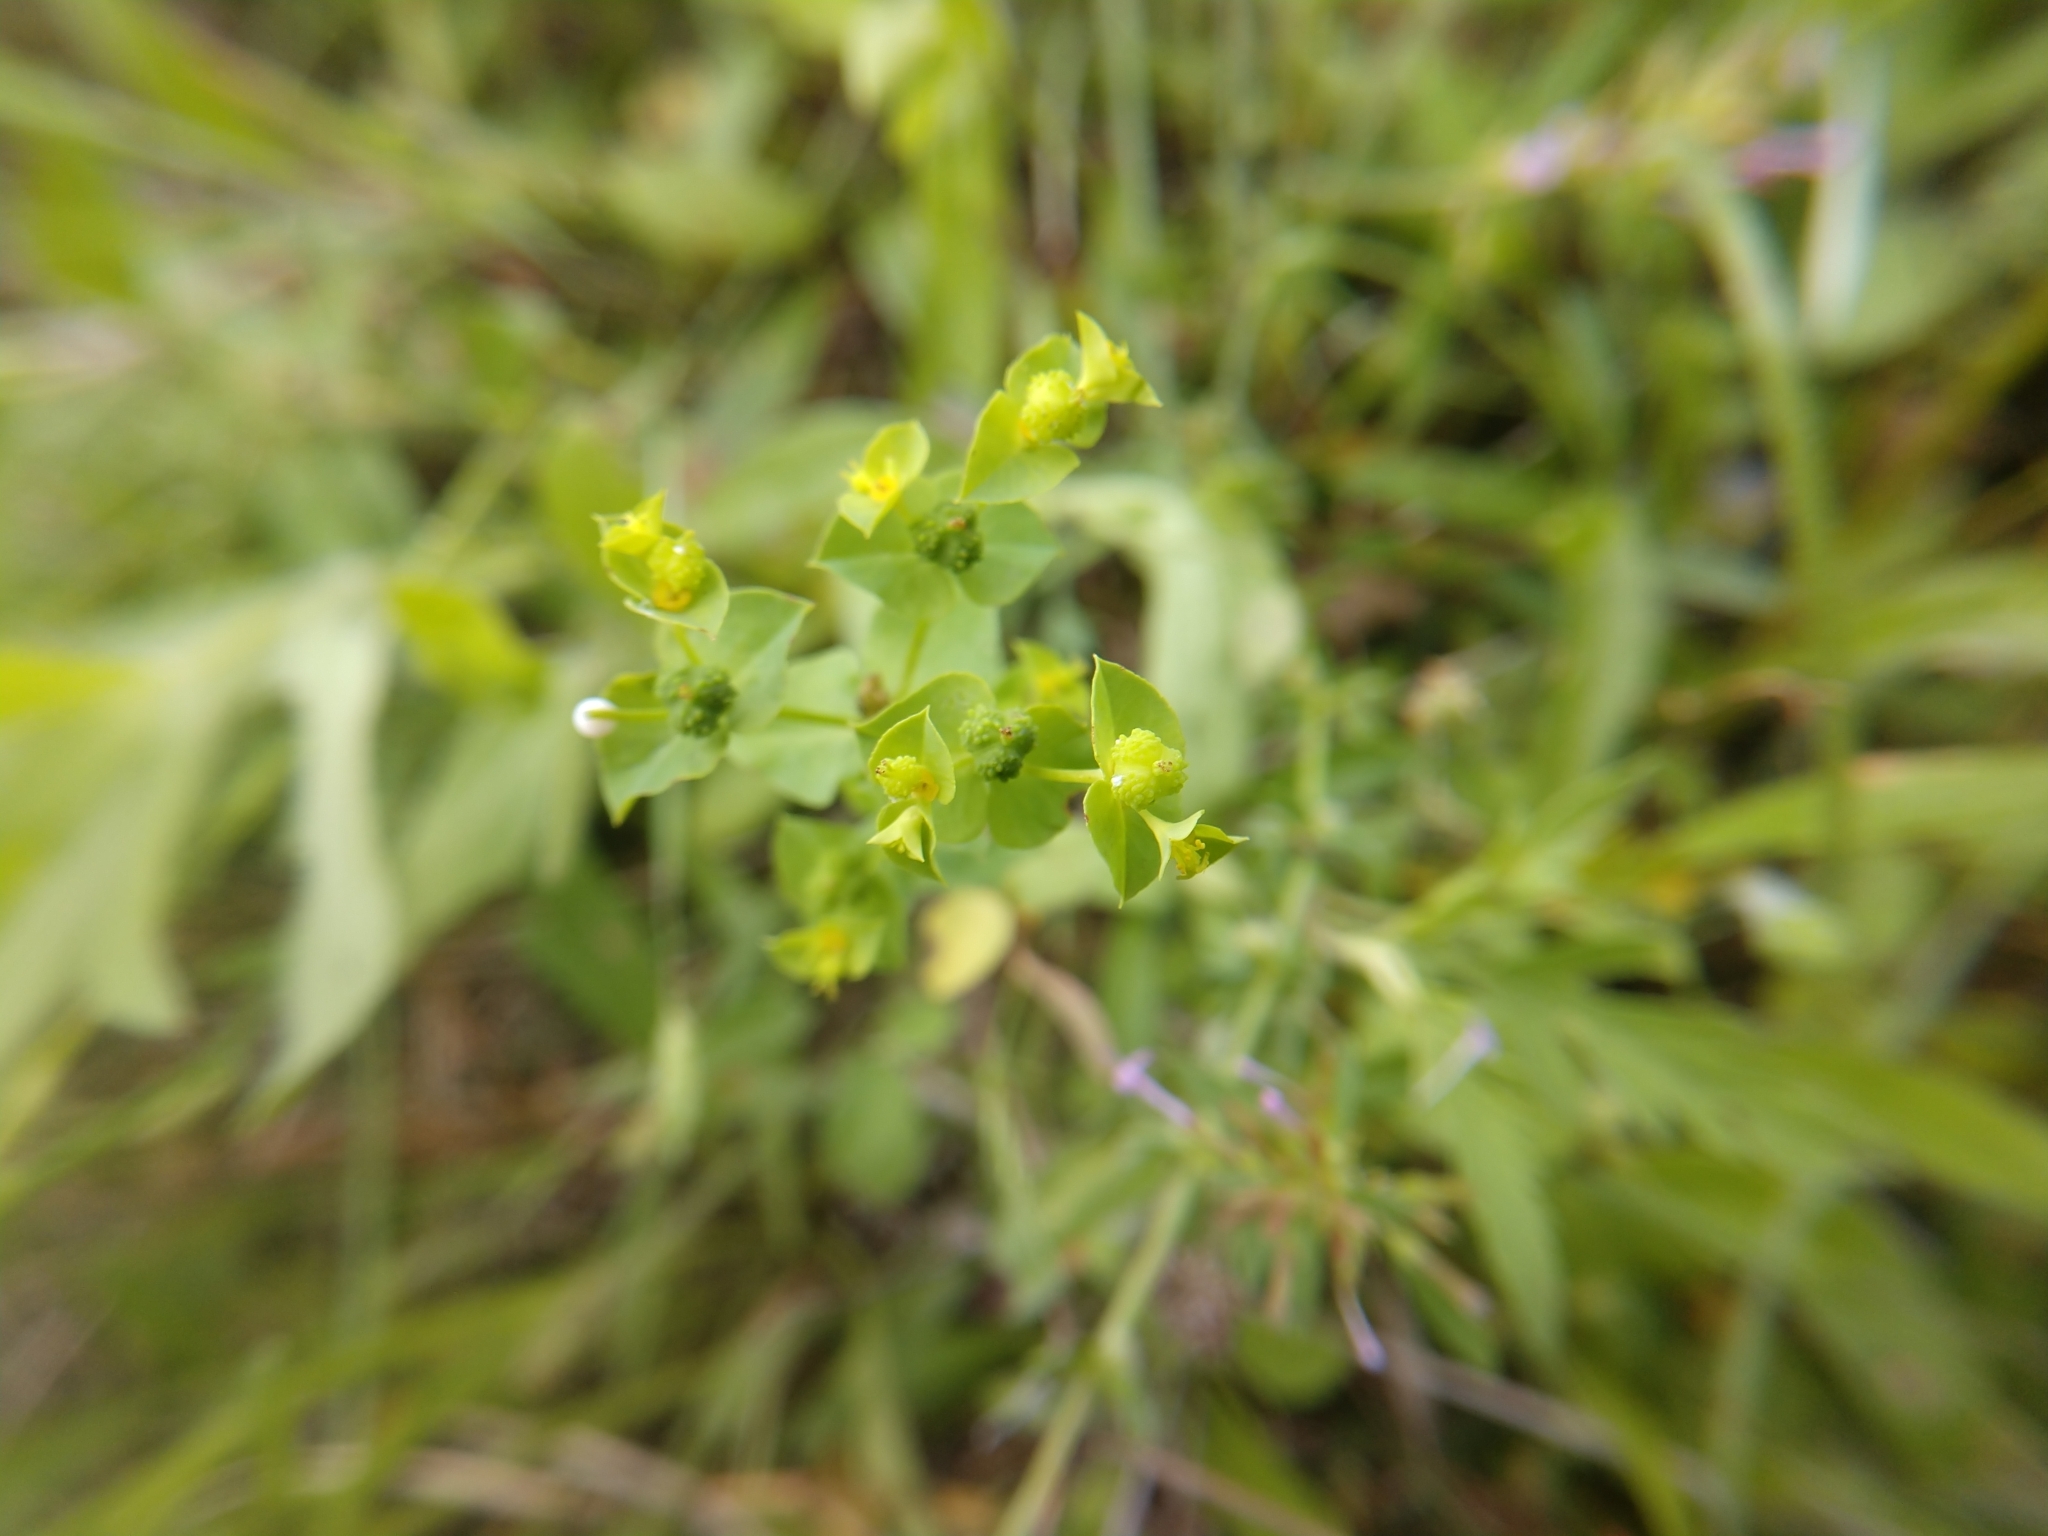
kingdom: Plantae
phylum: Tracheophyta
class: Magnoliopsida
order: Malpighiales
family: Euphorbiaceae
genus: Euphorbia
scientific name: Euphorbia spathulata
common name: Blunt spurge
